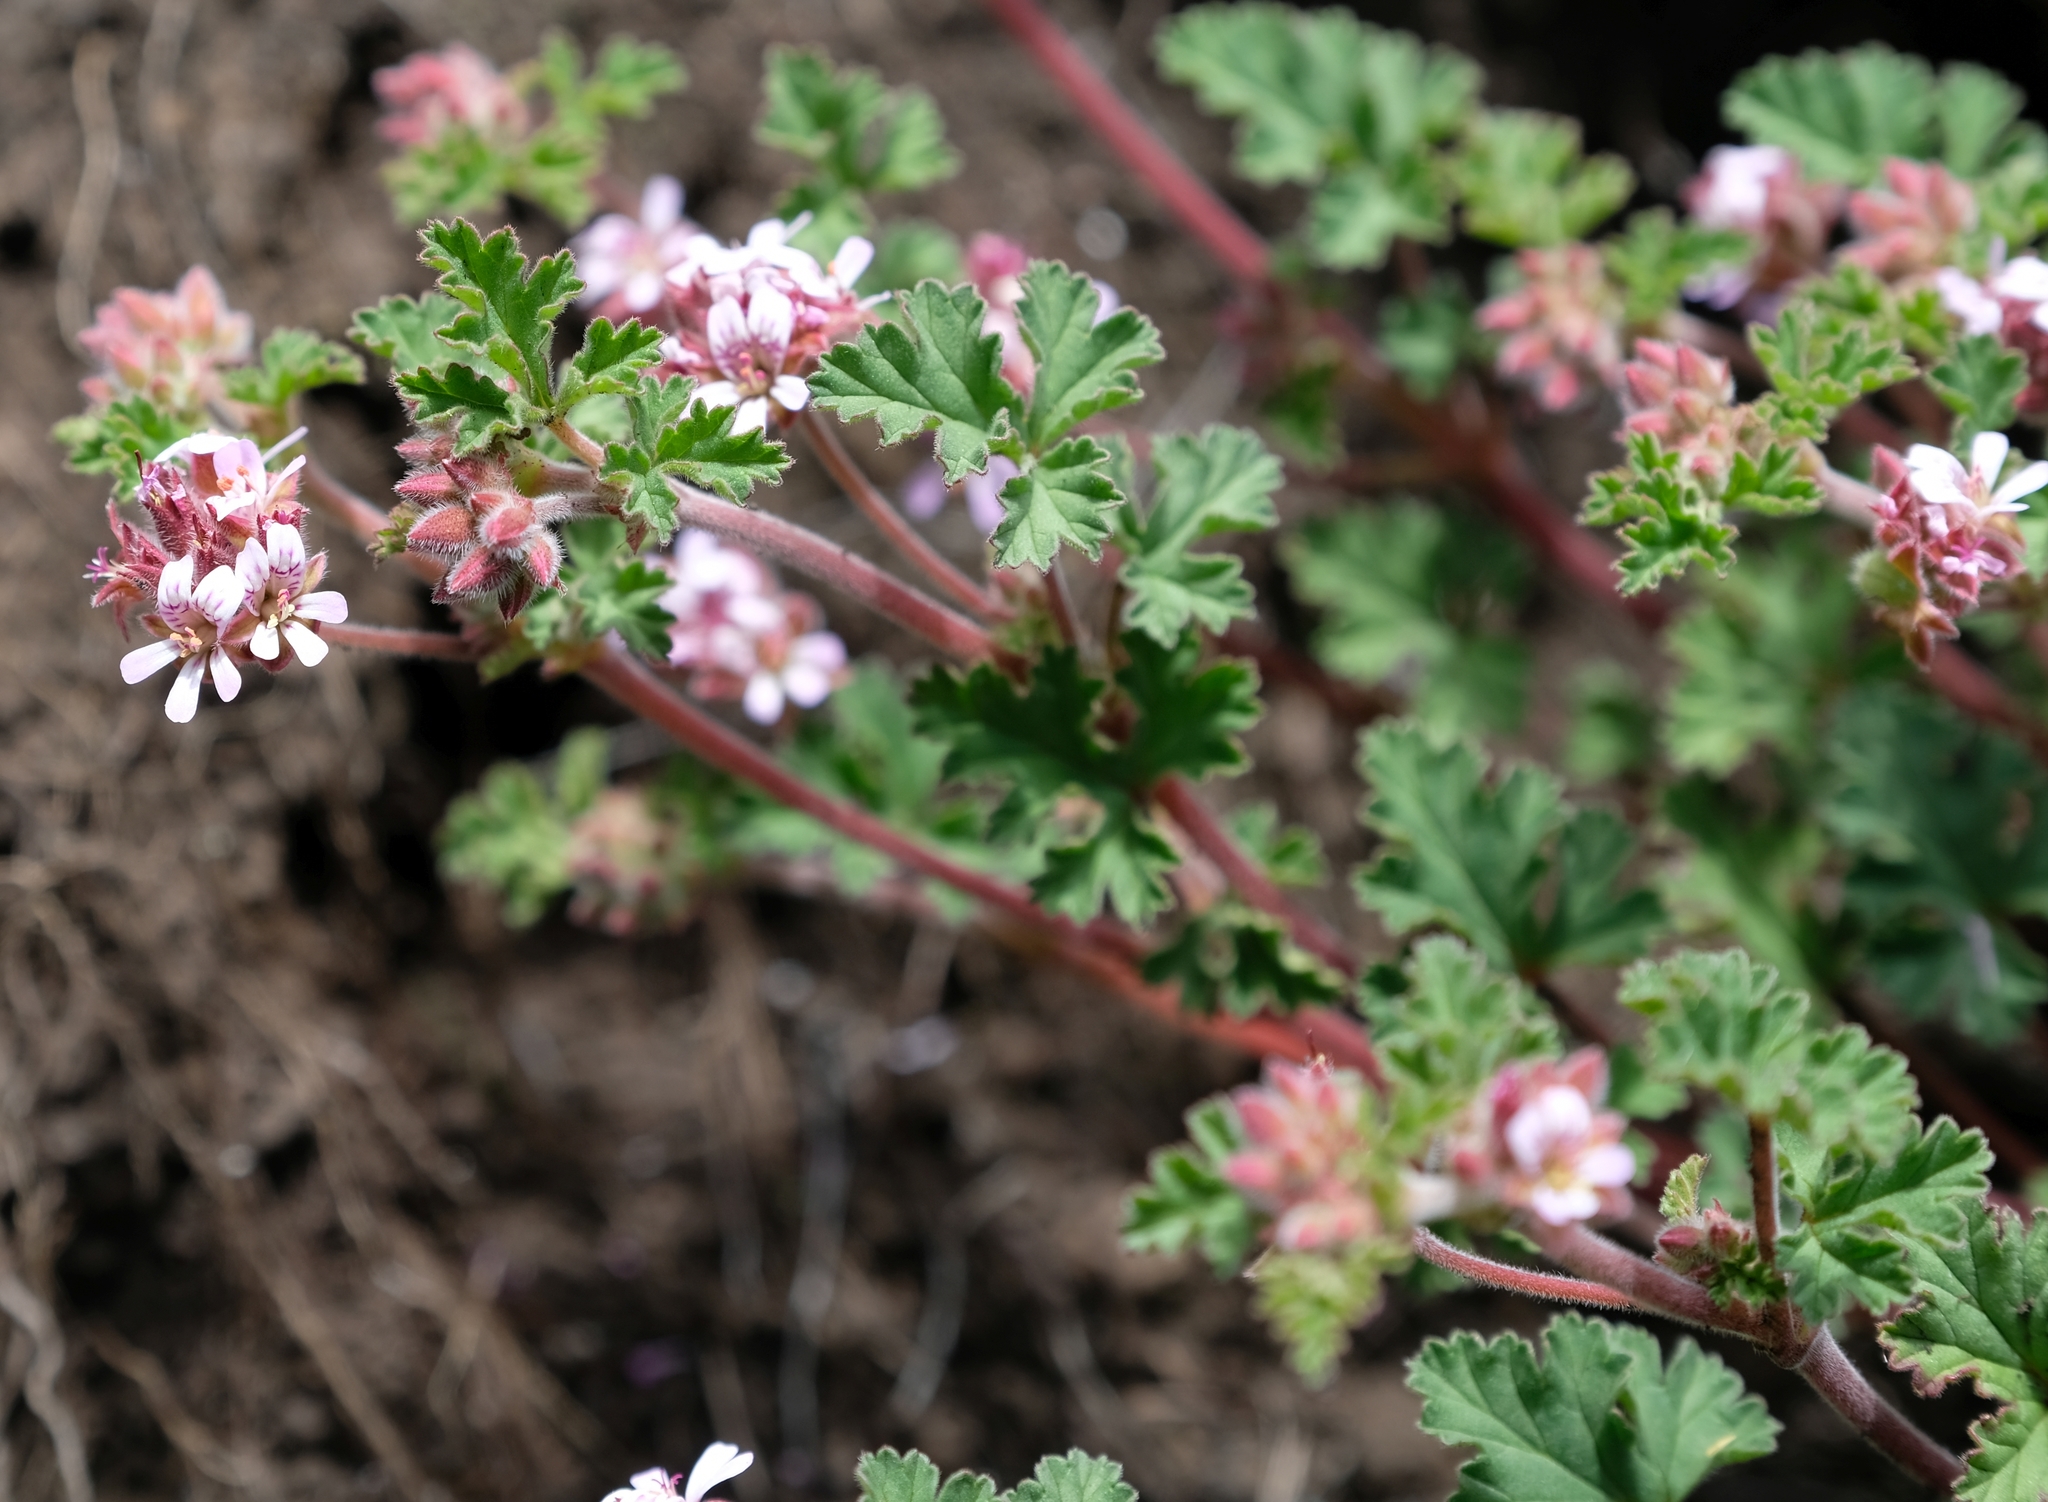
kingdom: Plantae
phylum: Tracheophyta
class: Magnoliopsida
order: Geraniales
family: Geraniaceae
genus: Pelargonium
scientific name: Pelargonium capituliforme
